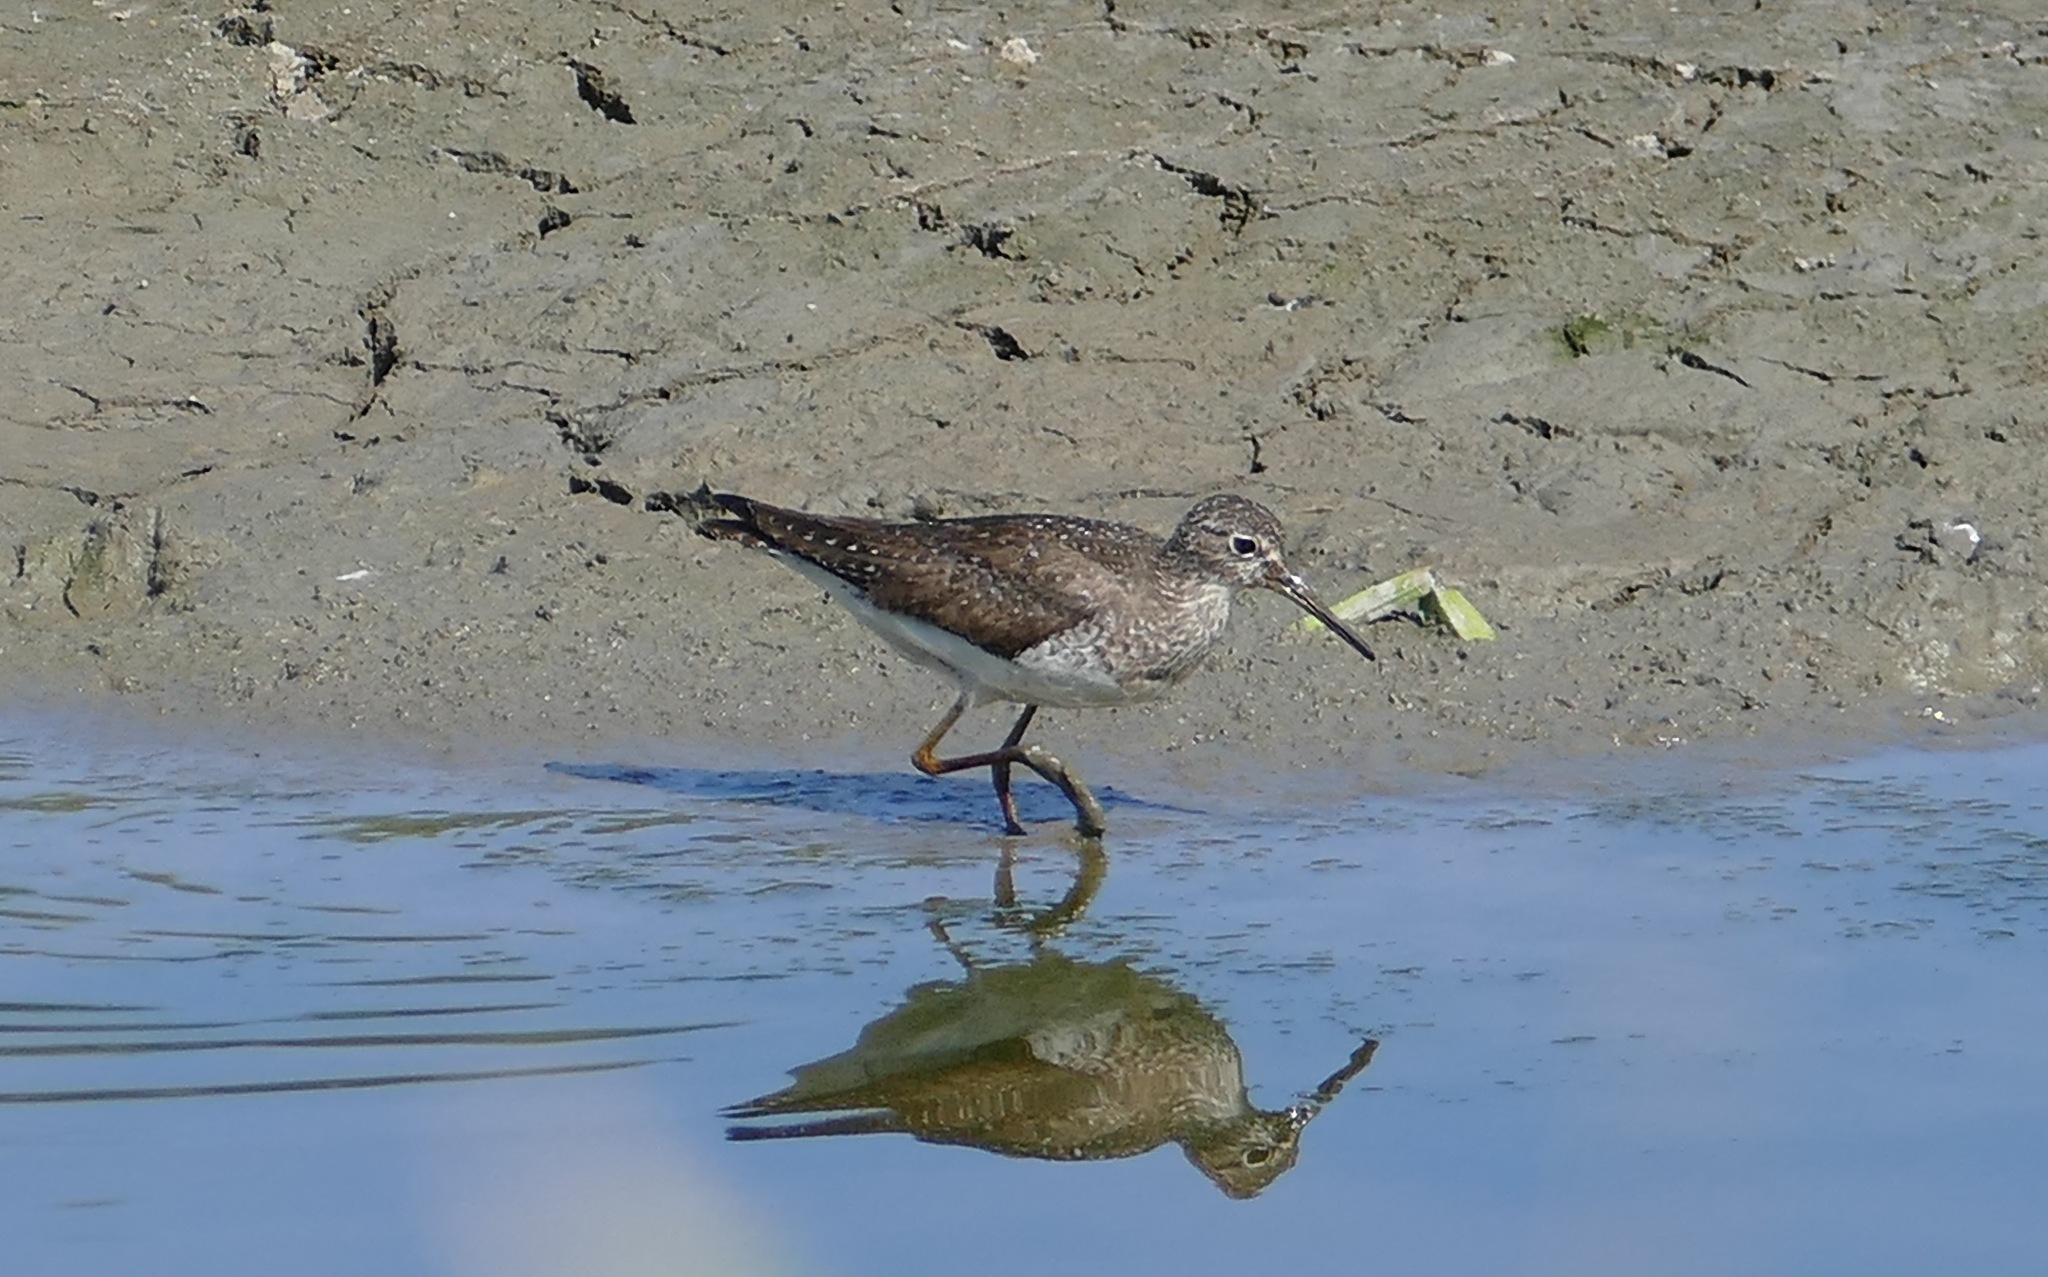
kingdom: Animalia
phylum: Chordata
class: Aves
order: Charadriiformes
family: Scolopacidae
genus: Tringa
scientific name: Tringa solitaria
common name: Solitary sandpiper
